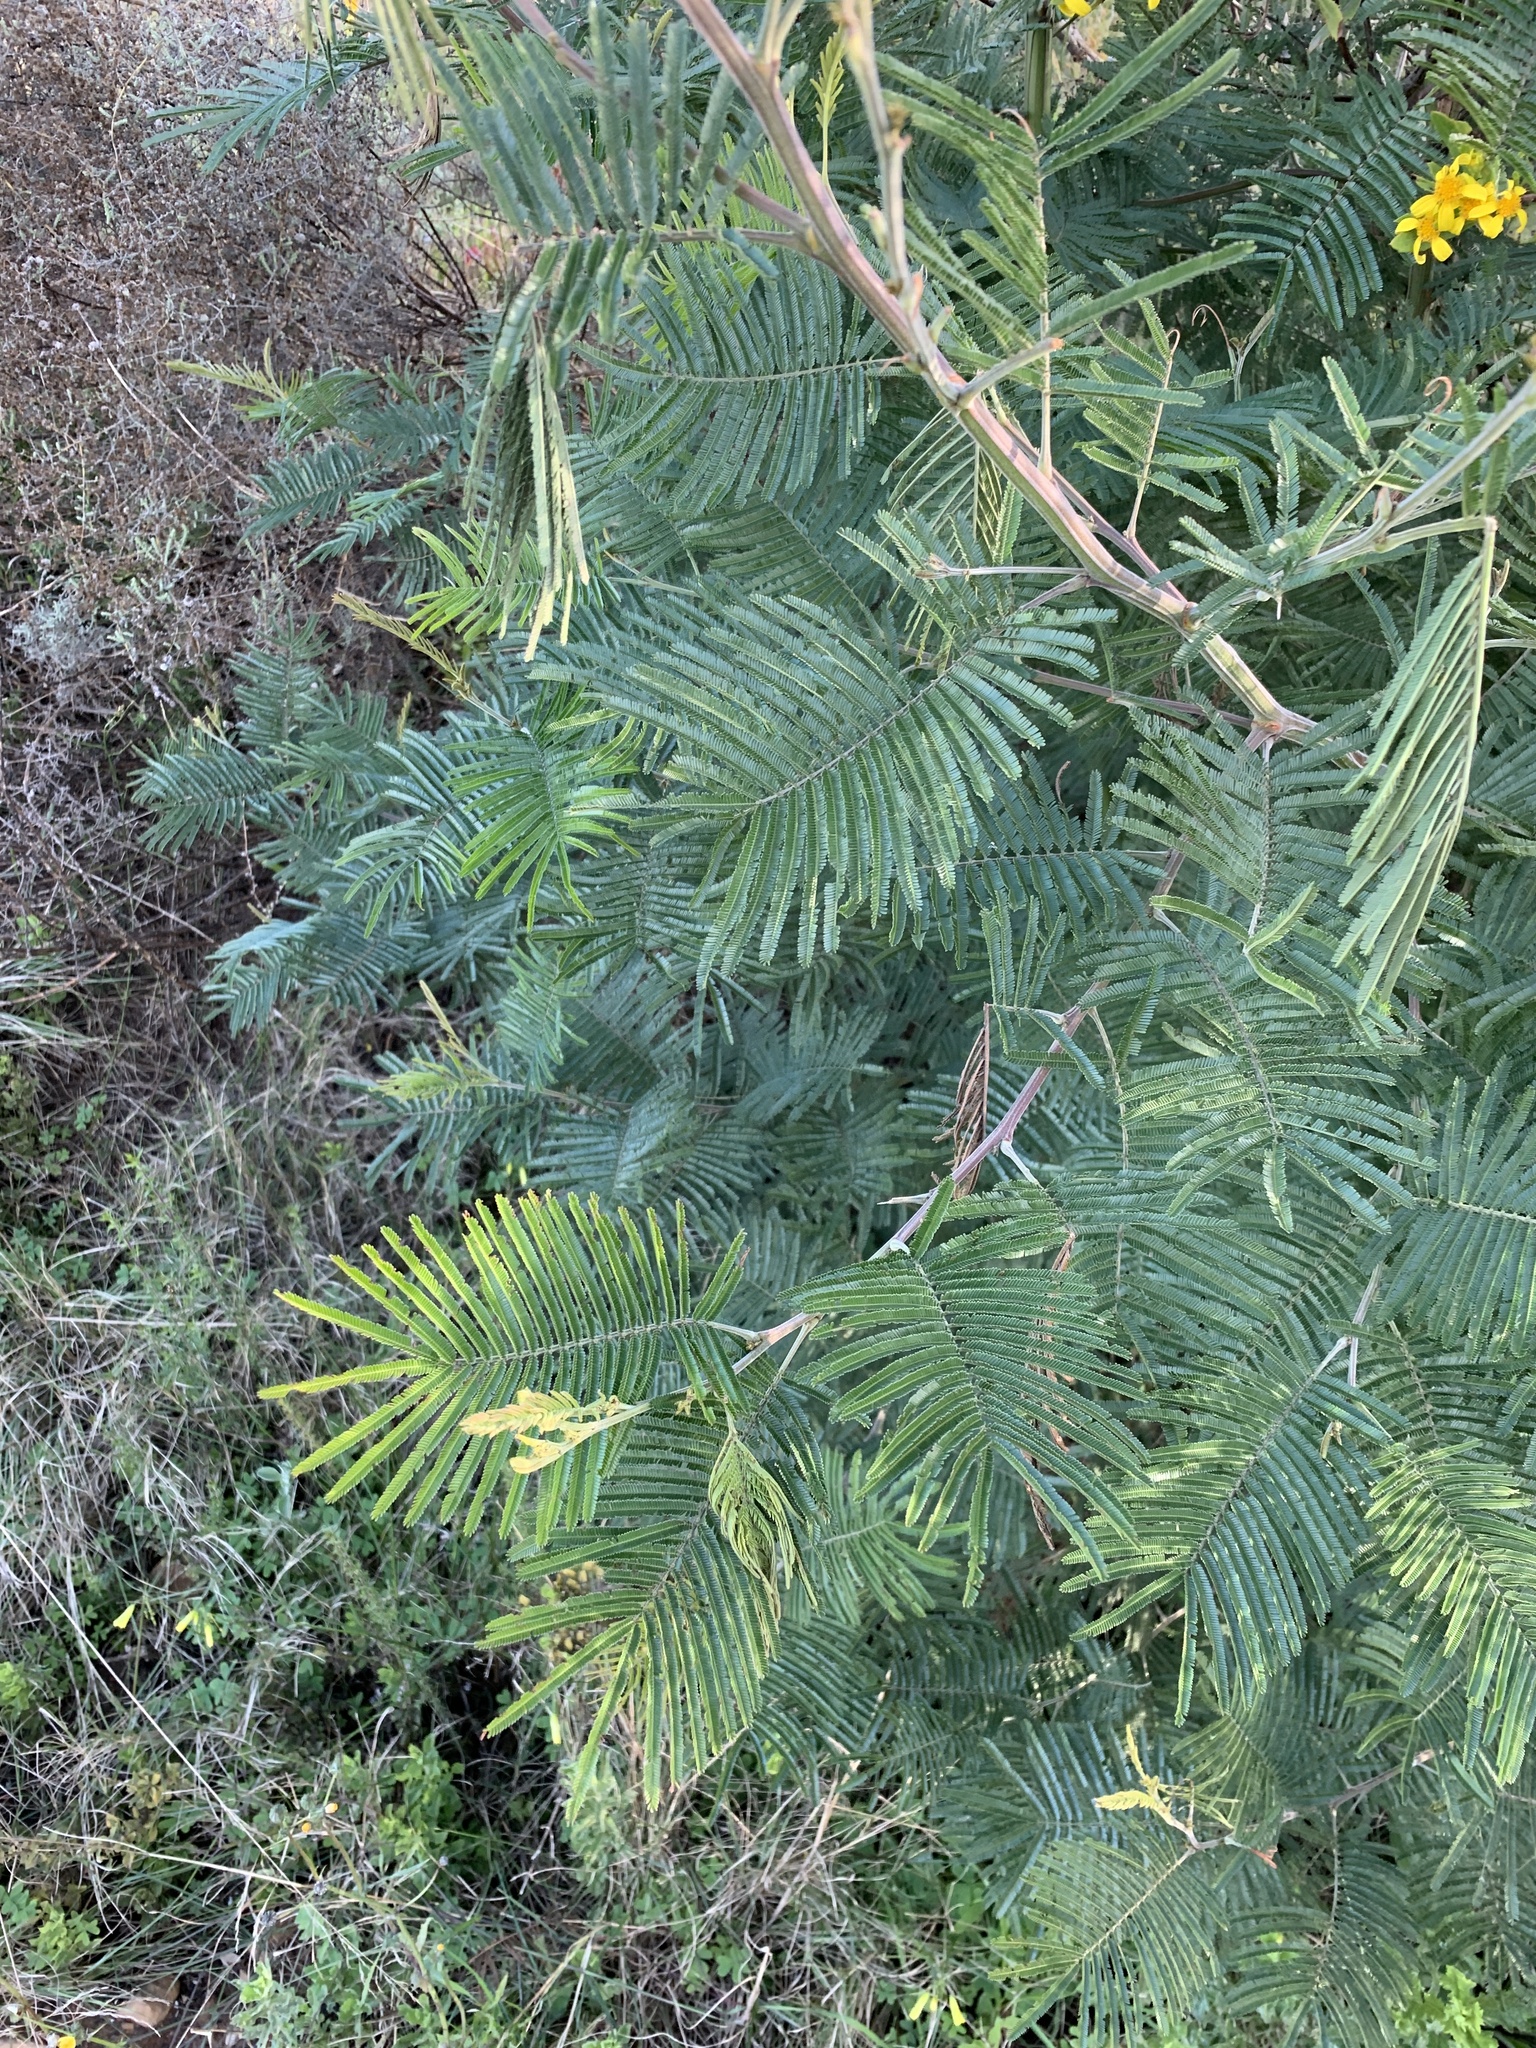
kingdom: Plantae
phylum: Tracheophyta
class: Magnoliopsida
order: Fabales
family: Fabaceae
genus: Acacia
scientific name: Acacia mearnsii
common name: Black wattle
